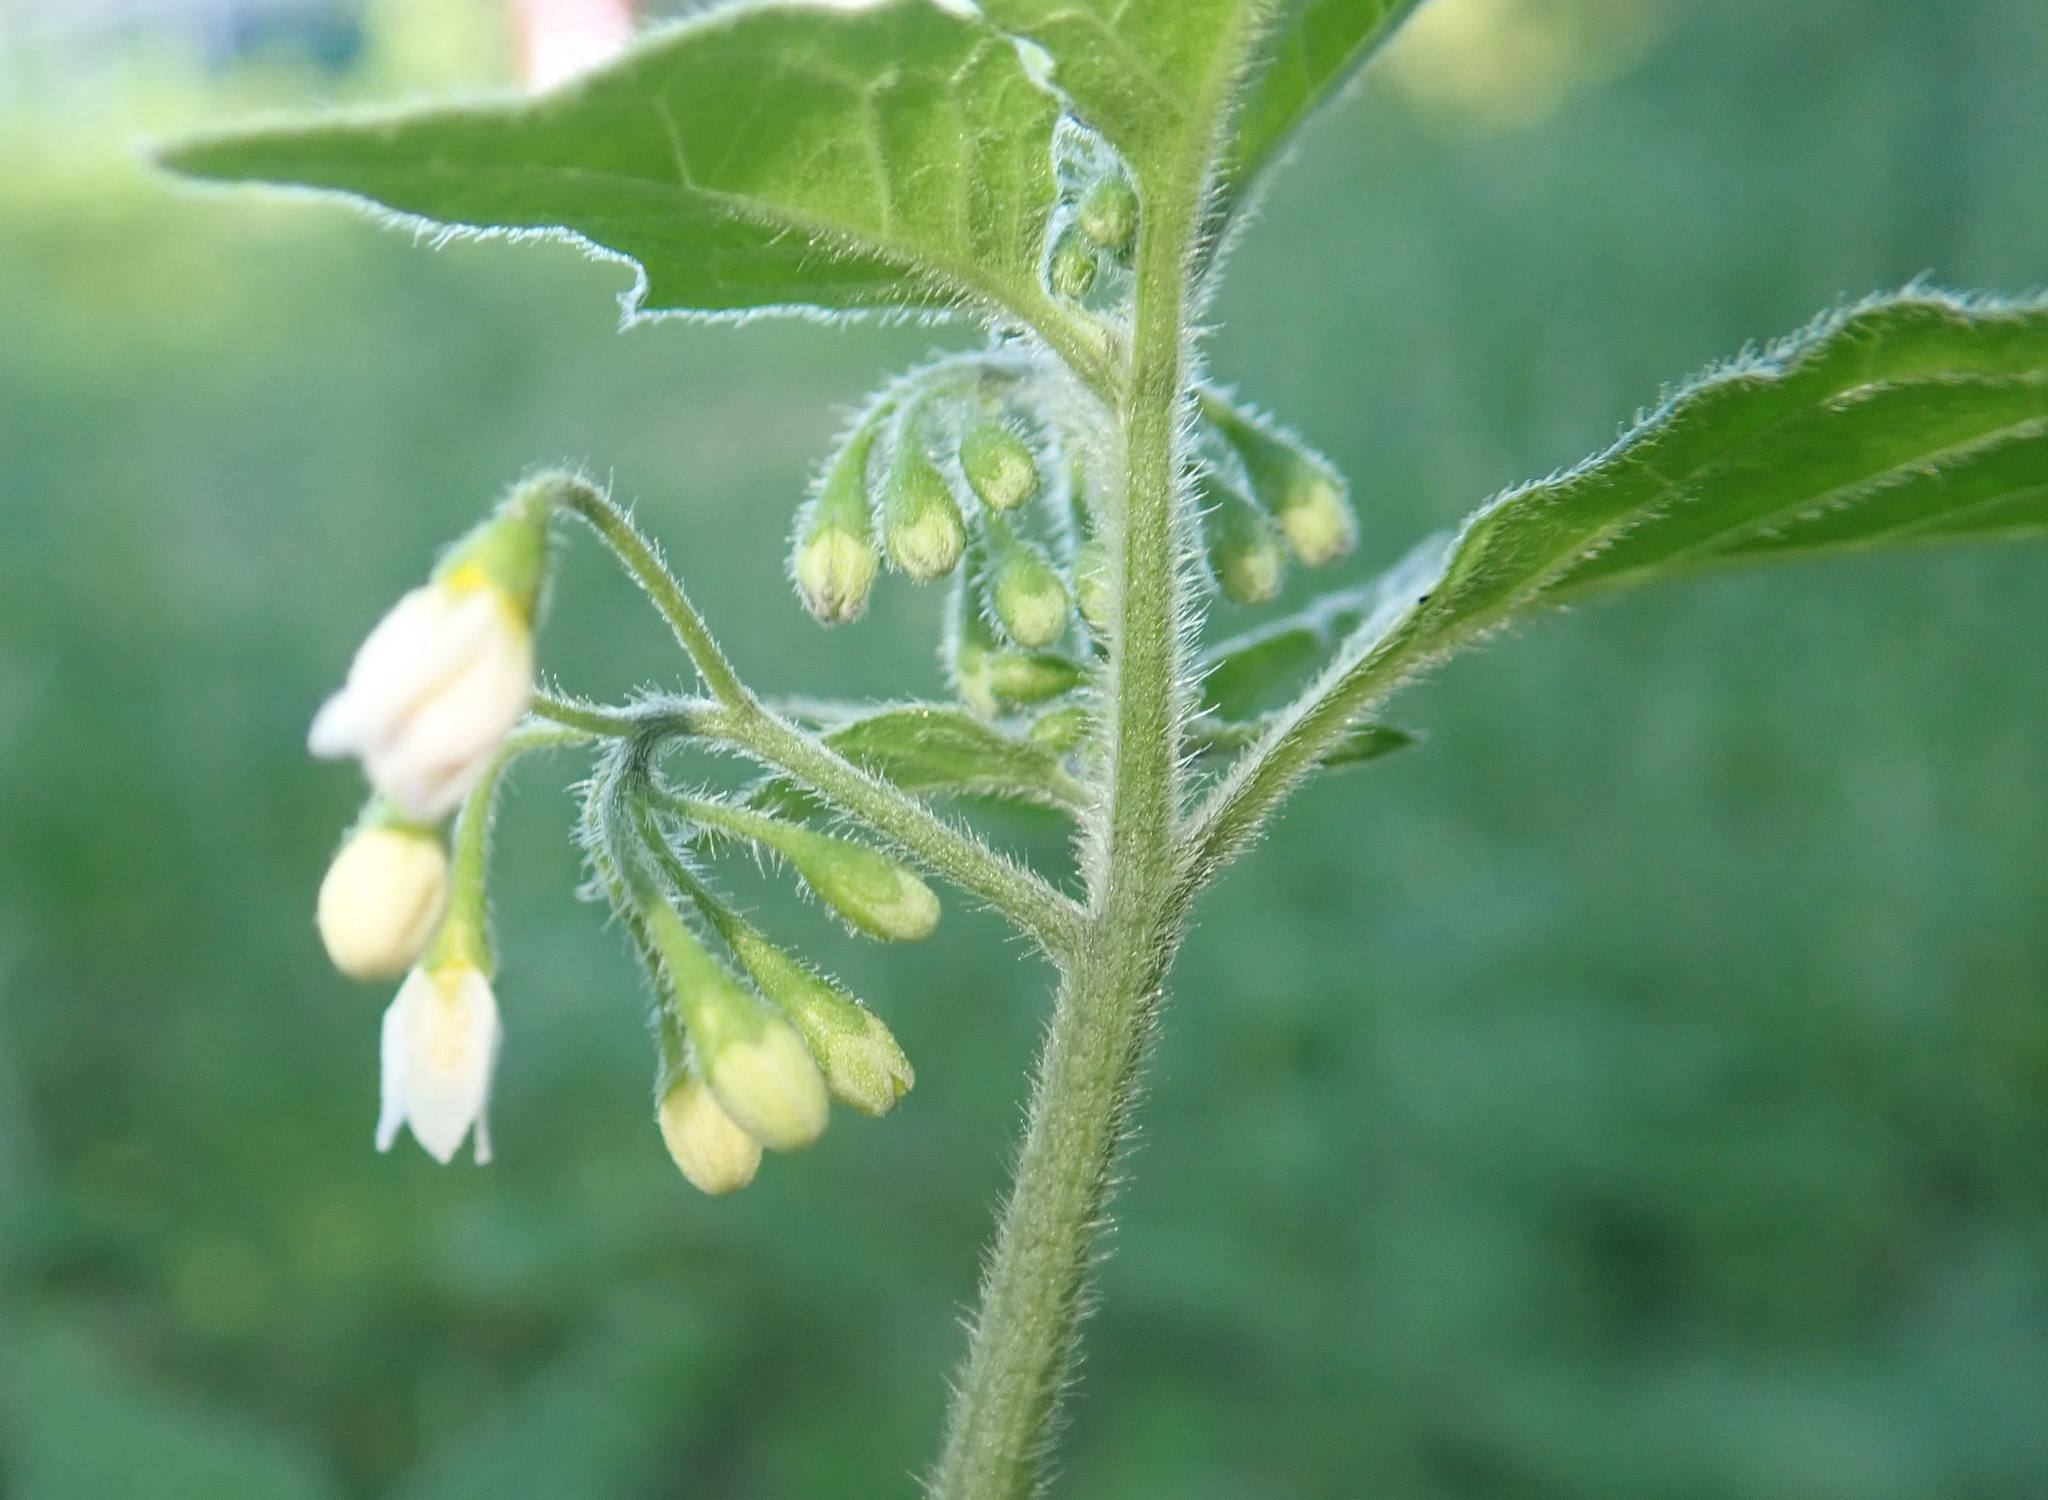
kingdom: Plantae
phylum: Tracheophyta
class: Magnoliopsida
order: Solanales
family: Solanaceae
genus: Solanum
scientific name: Solanum decipiens
